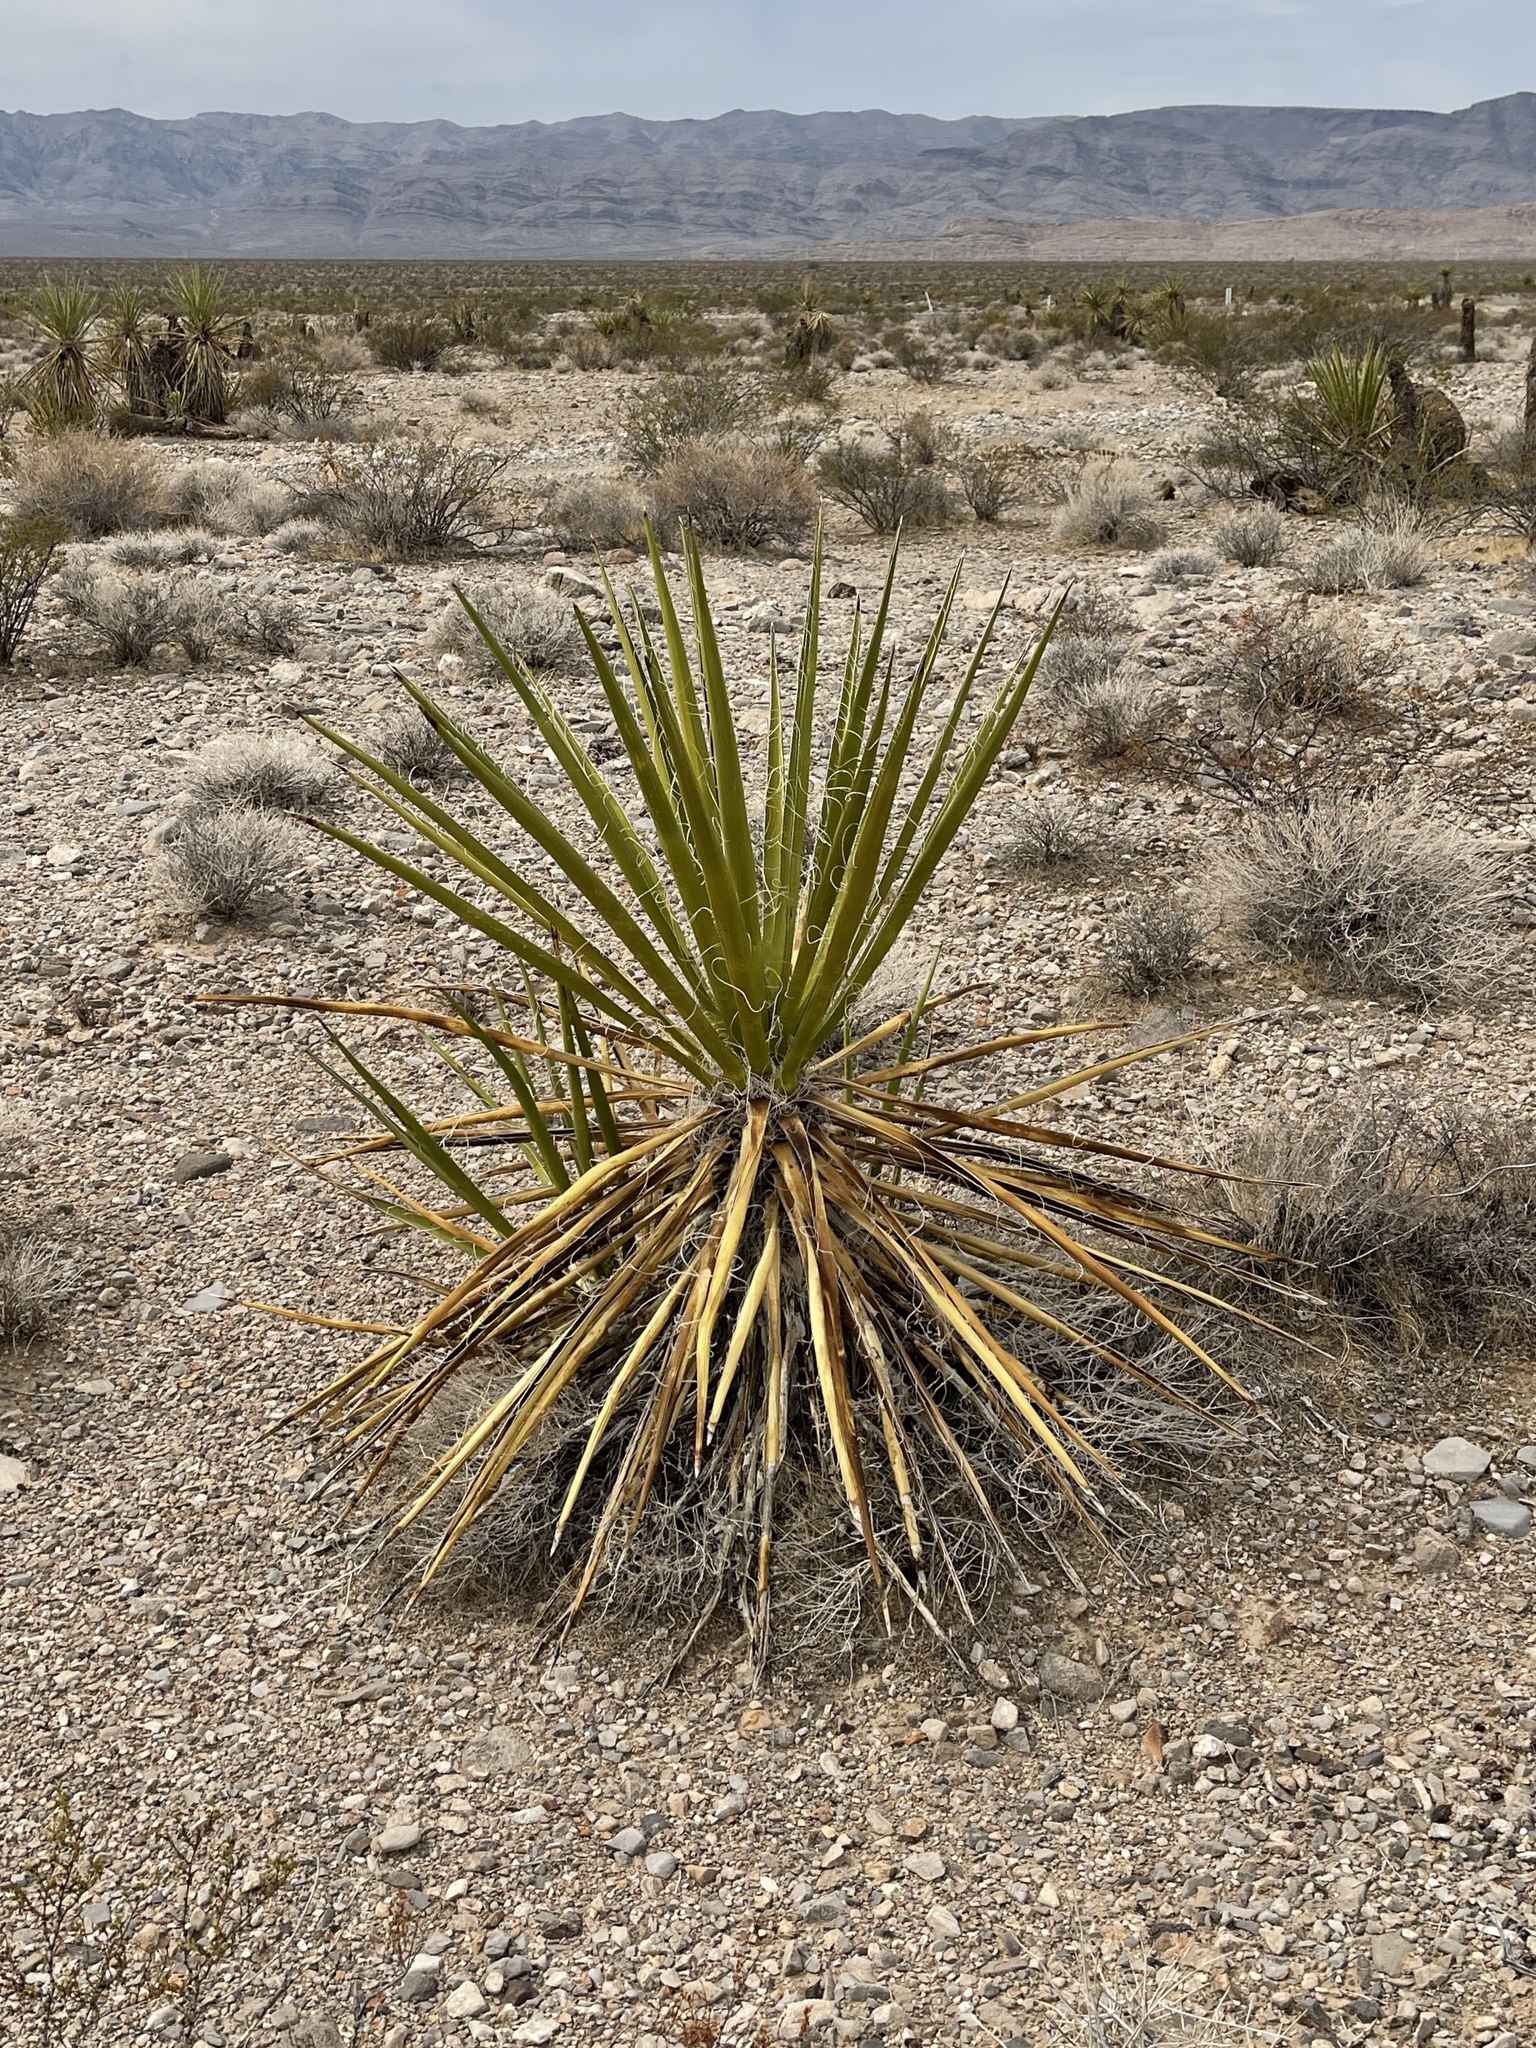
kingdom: Plantae
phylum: Tracheophyta
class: Liliopsida
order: Asparagales
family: Asparagaceae
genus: Yucca
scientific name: Yucca schidigera
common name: Mojave yucca
